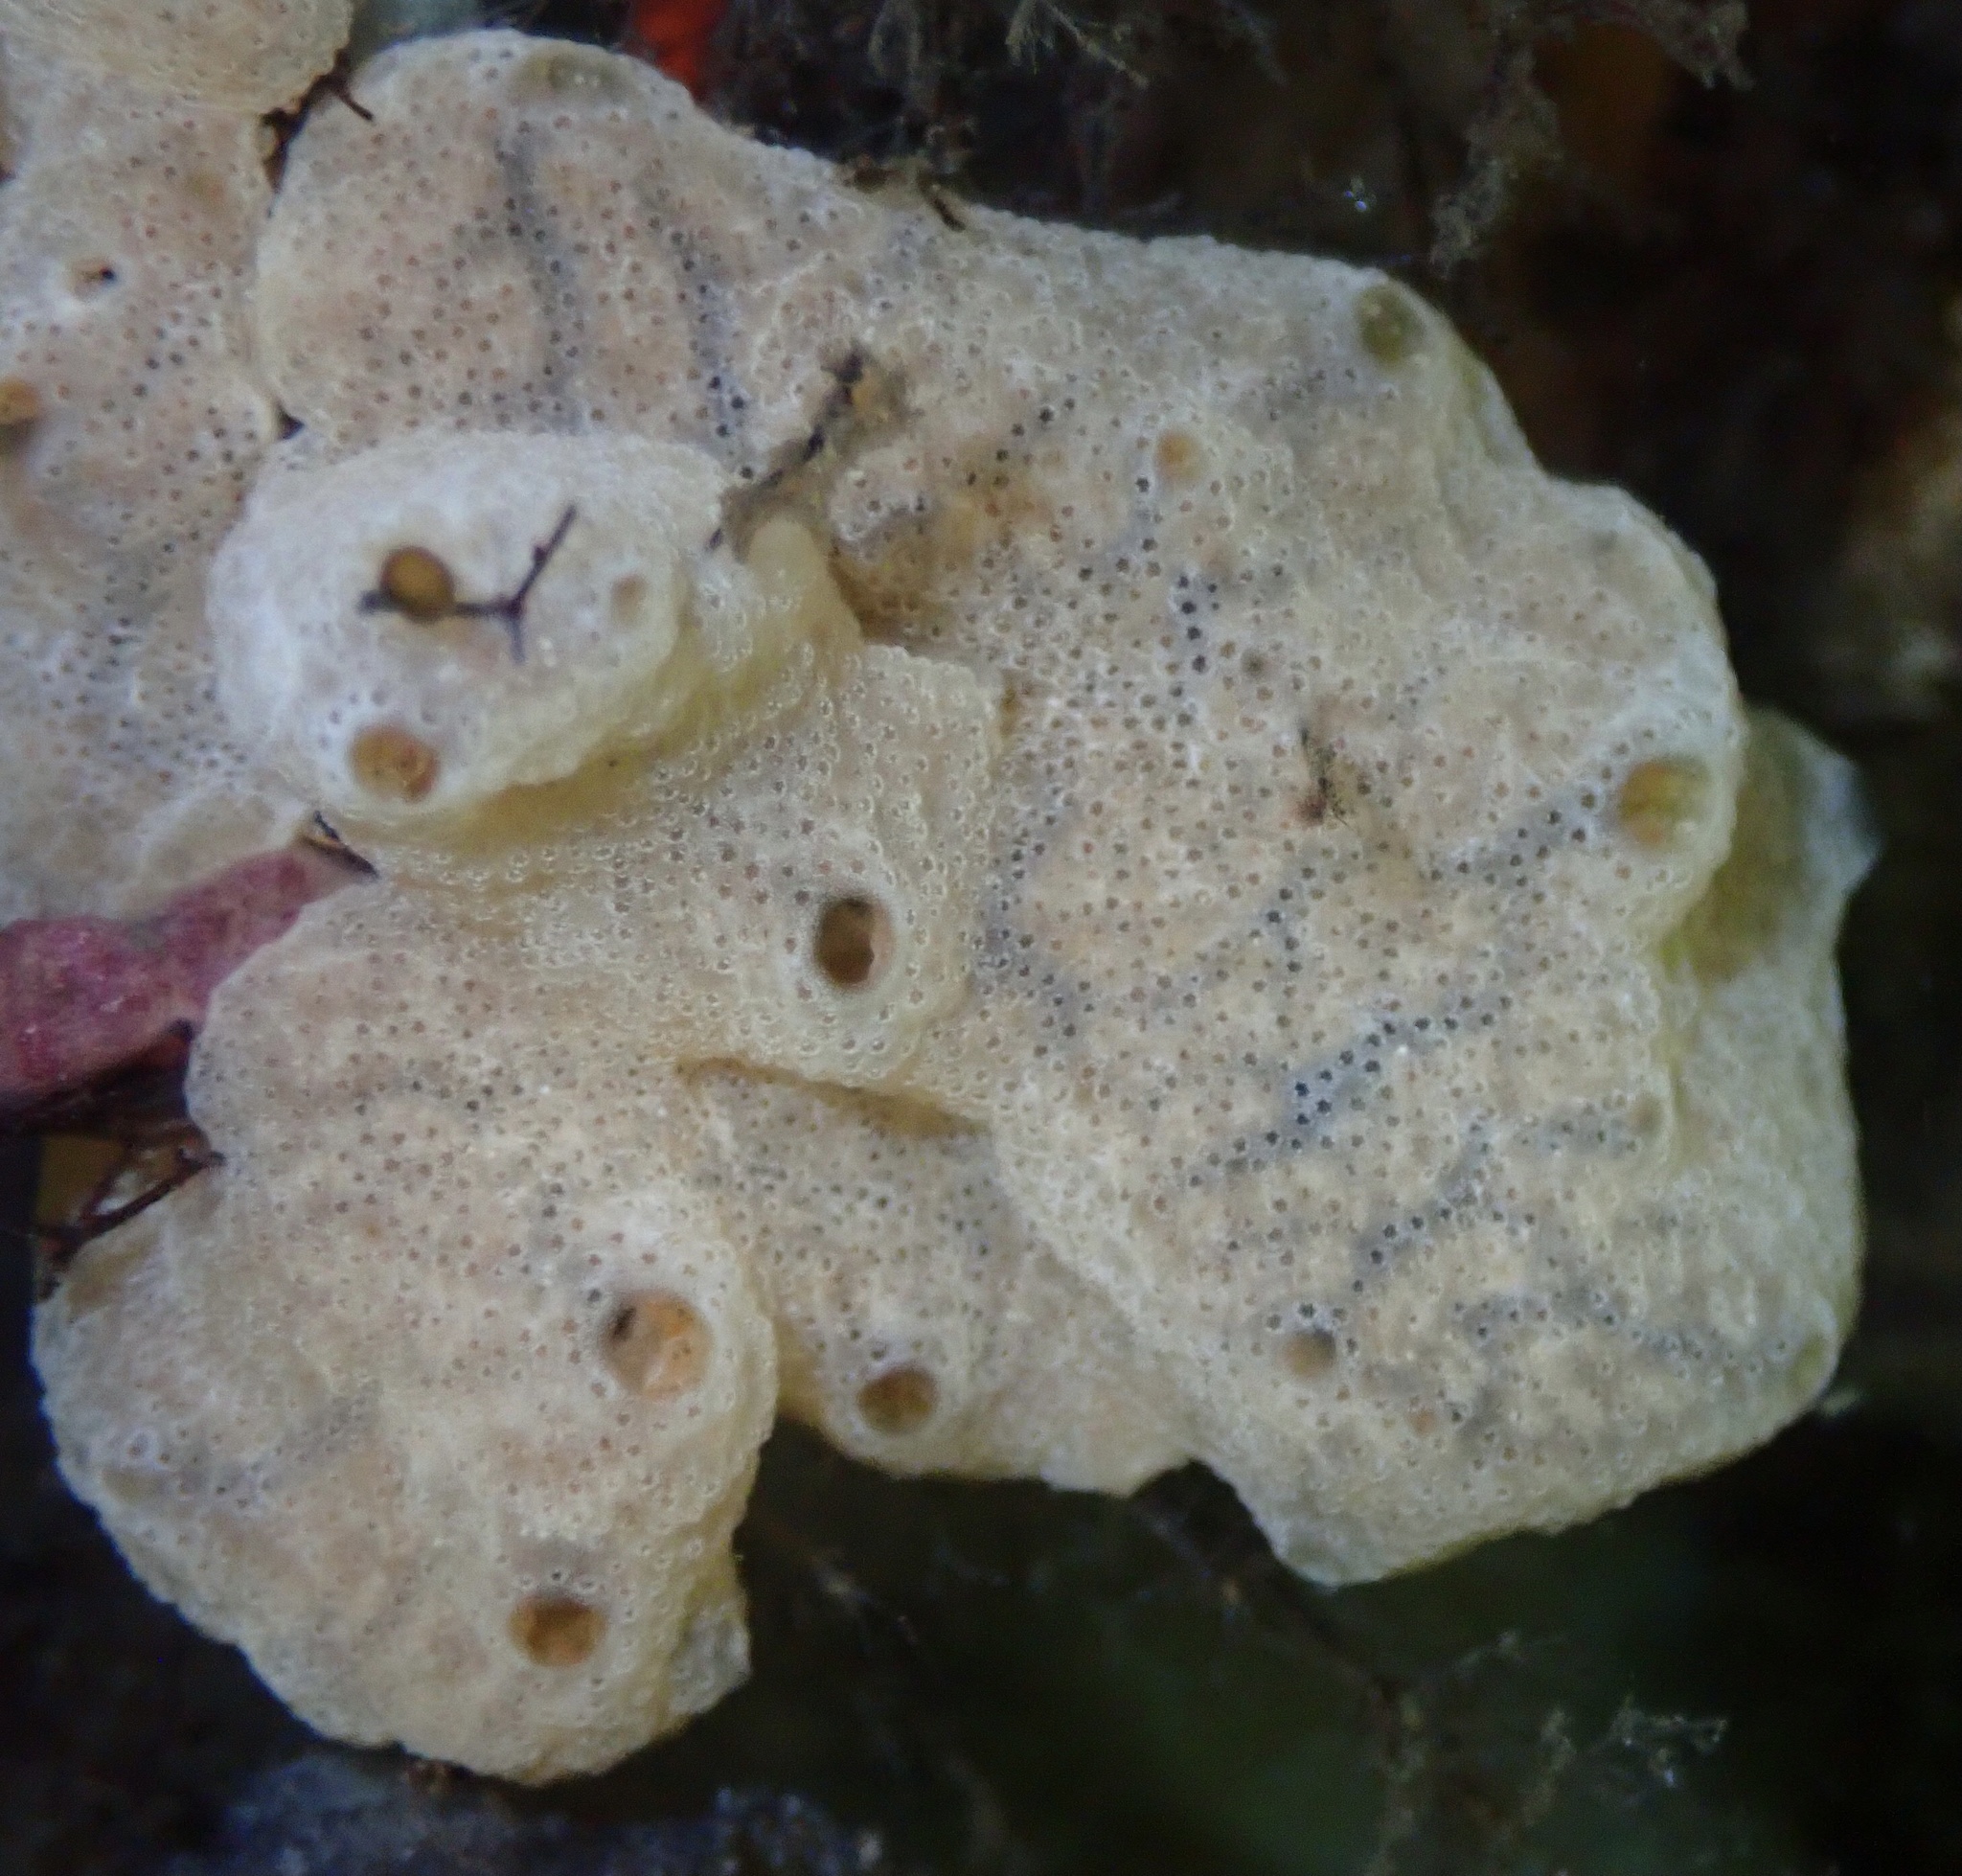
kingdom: Animalia
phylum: Chordata
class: Ascidiacea
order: Aplousobranchia
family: Didemnidae
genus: Didemnum
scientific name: Didemnum vexillum
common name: Compound sea squirt
